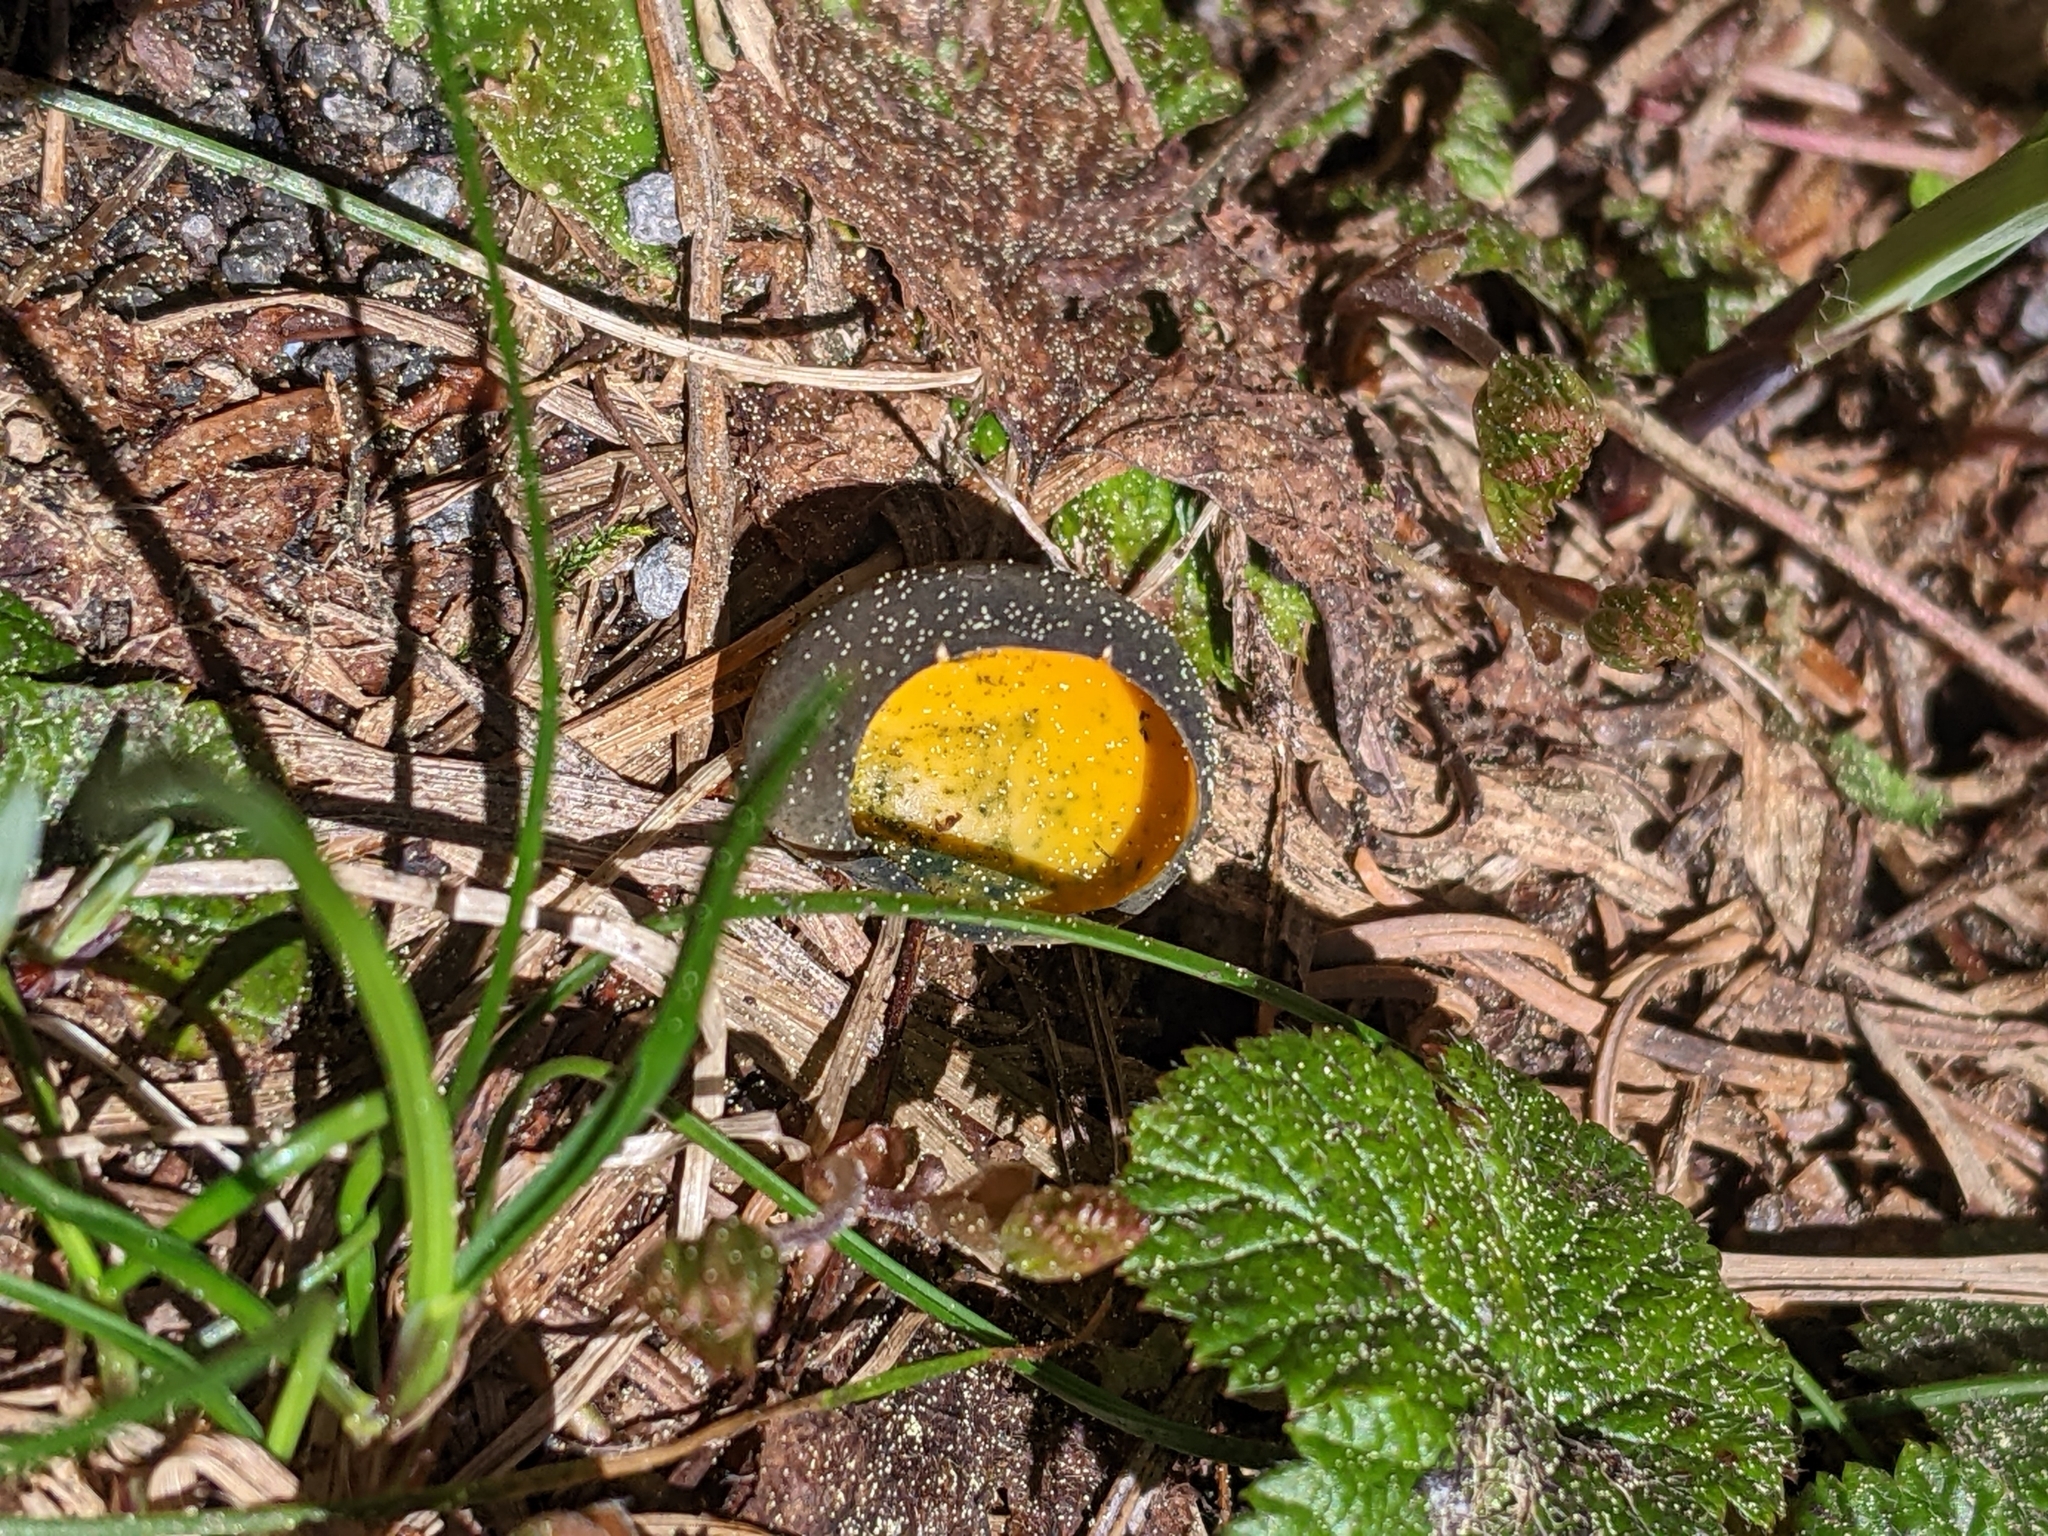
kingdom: Fungi
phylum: Ascomycota
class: Pezizomycetes
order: Pezizales
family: Caloscyphaceae
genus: Caloscypha
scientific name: Caloscypha fulgens
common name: Golden cup
